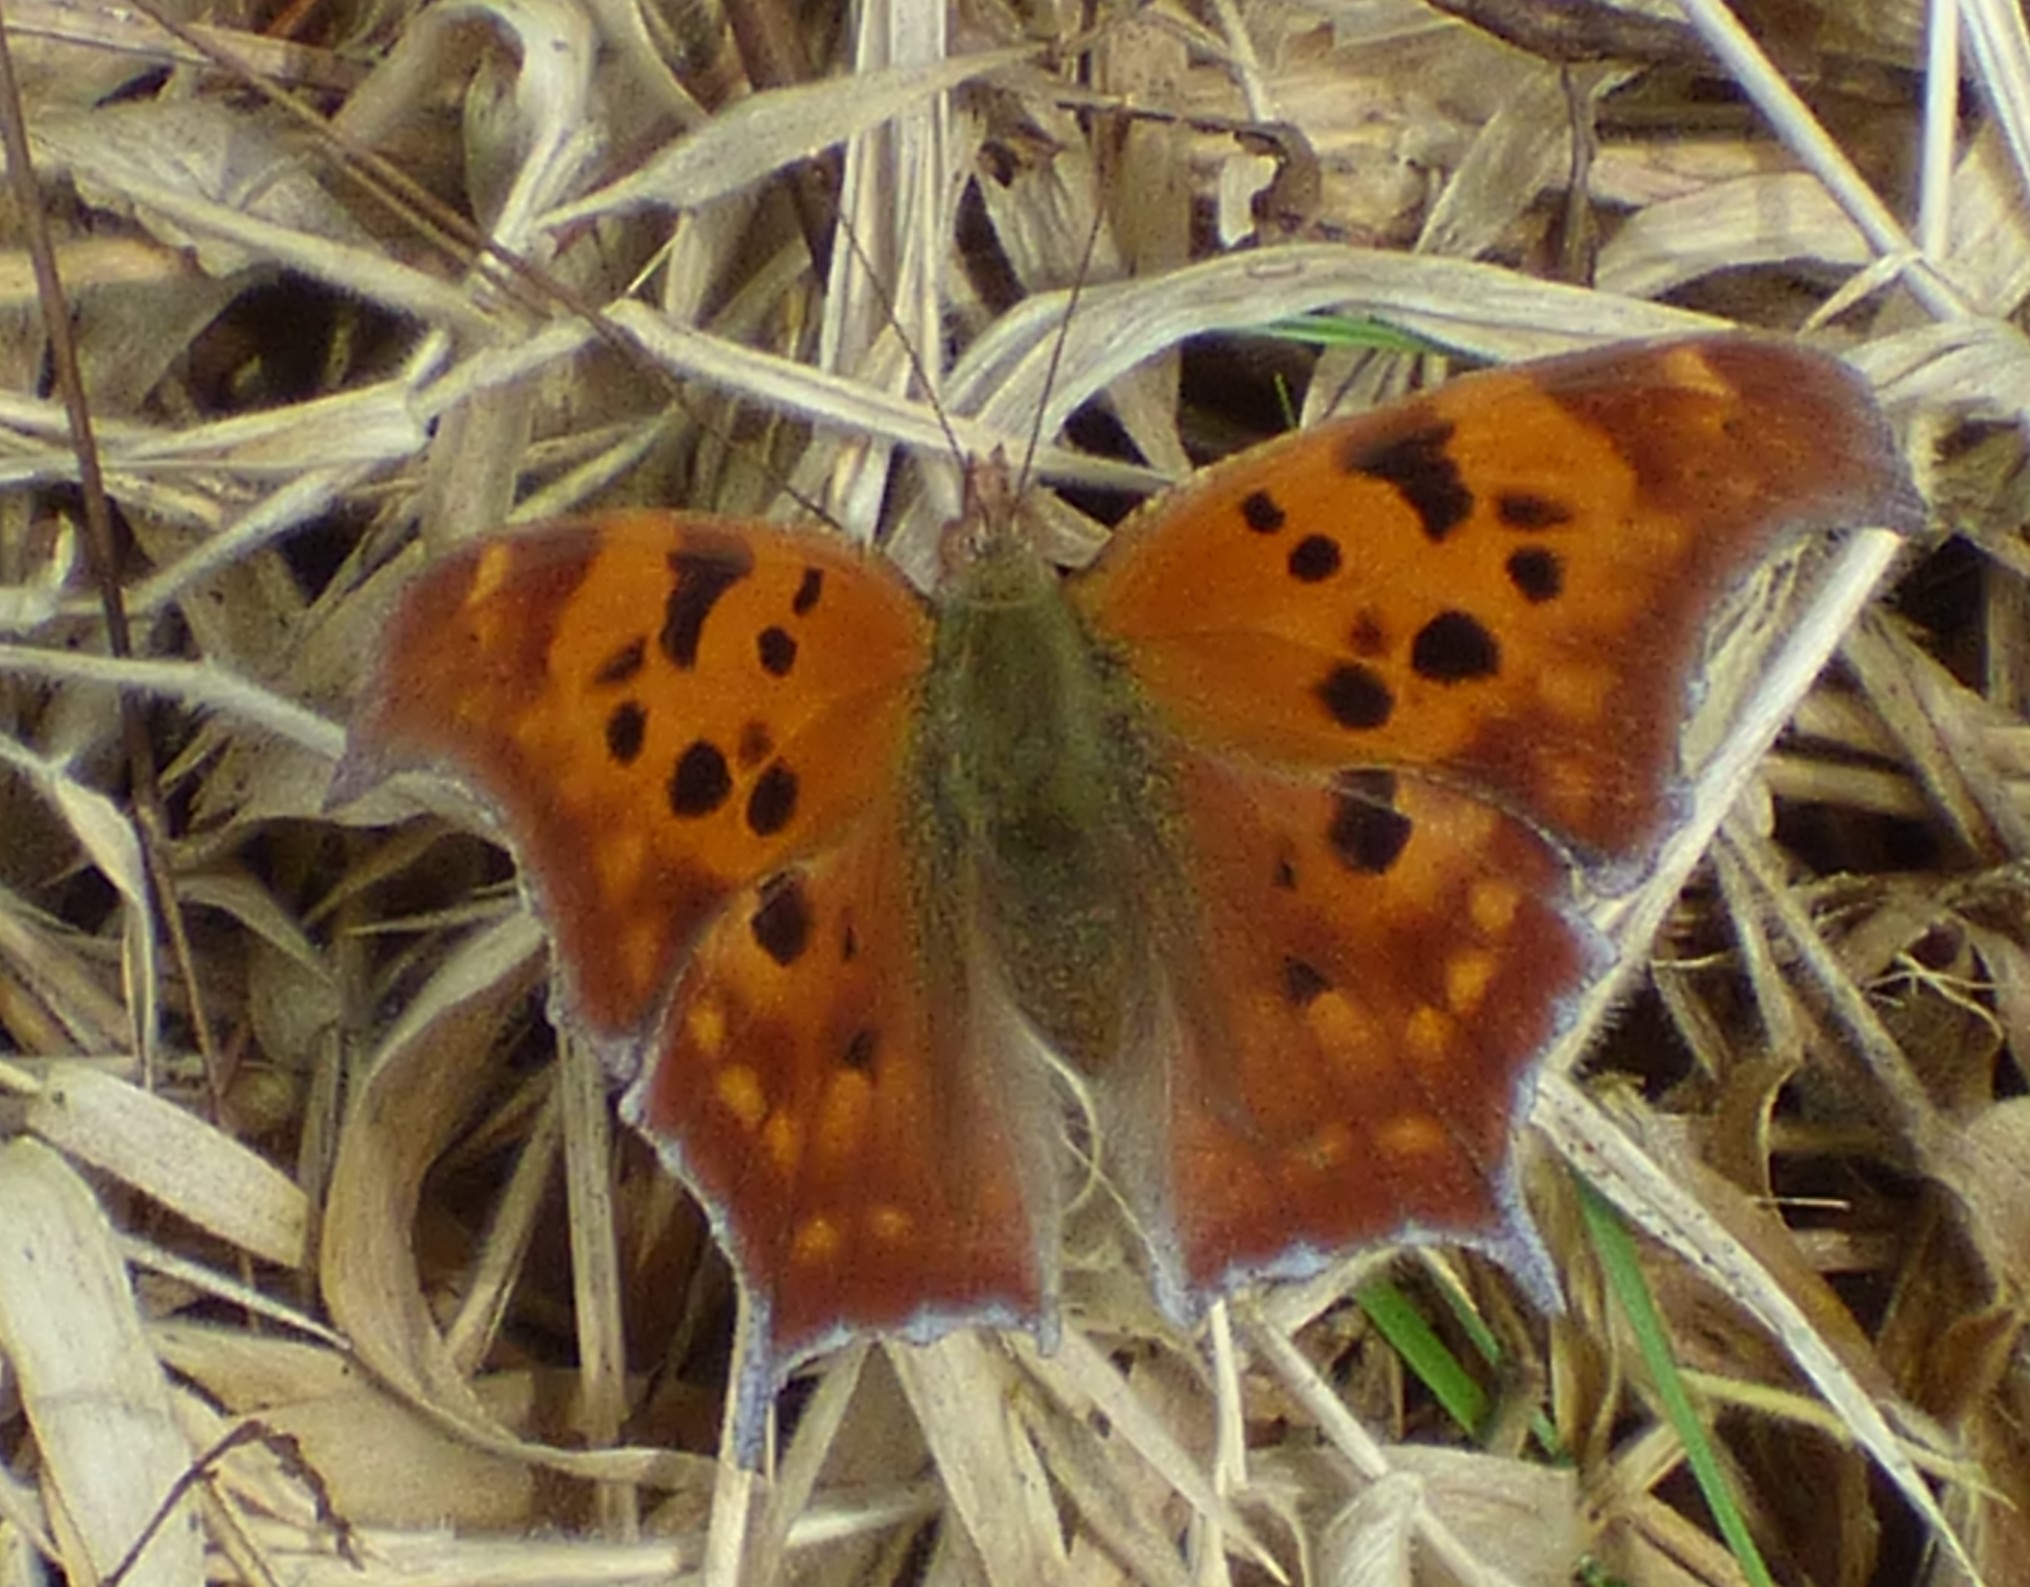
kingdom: Animalia
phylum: Arthropoda
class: Insecta
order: Lepidoptera
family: Nymphalidae
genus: Polygonia
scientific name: Polygonia interrogationis
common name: Question mark
